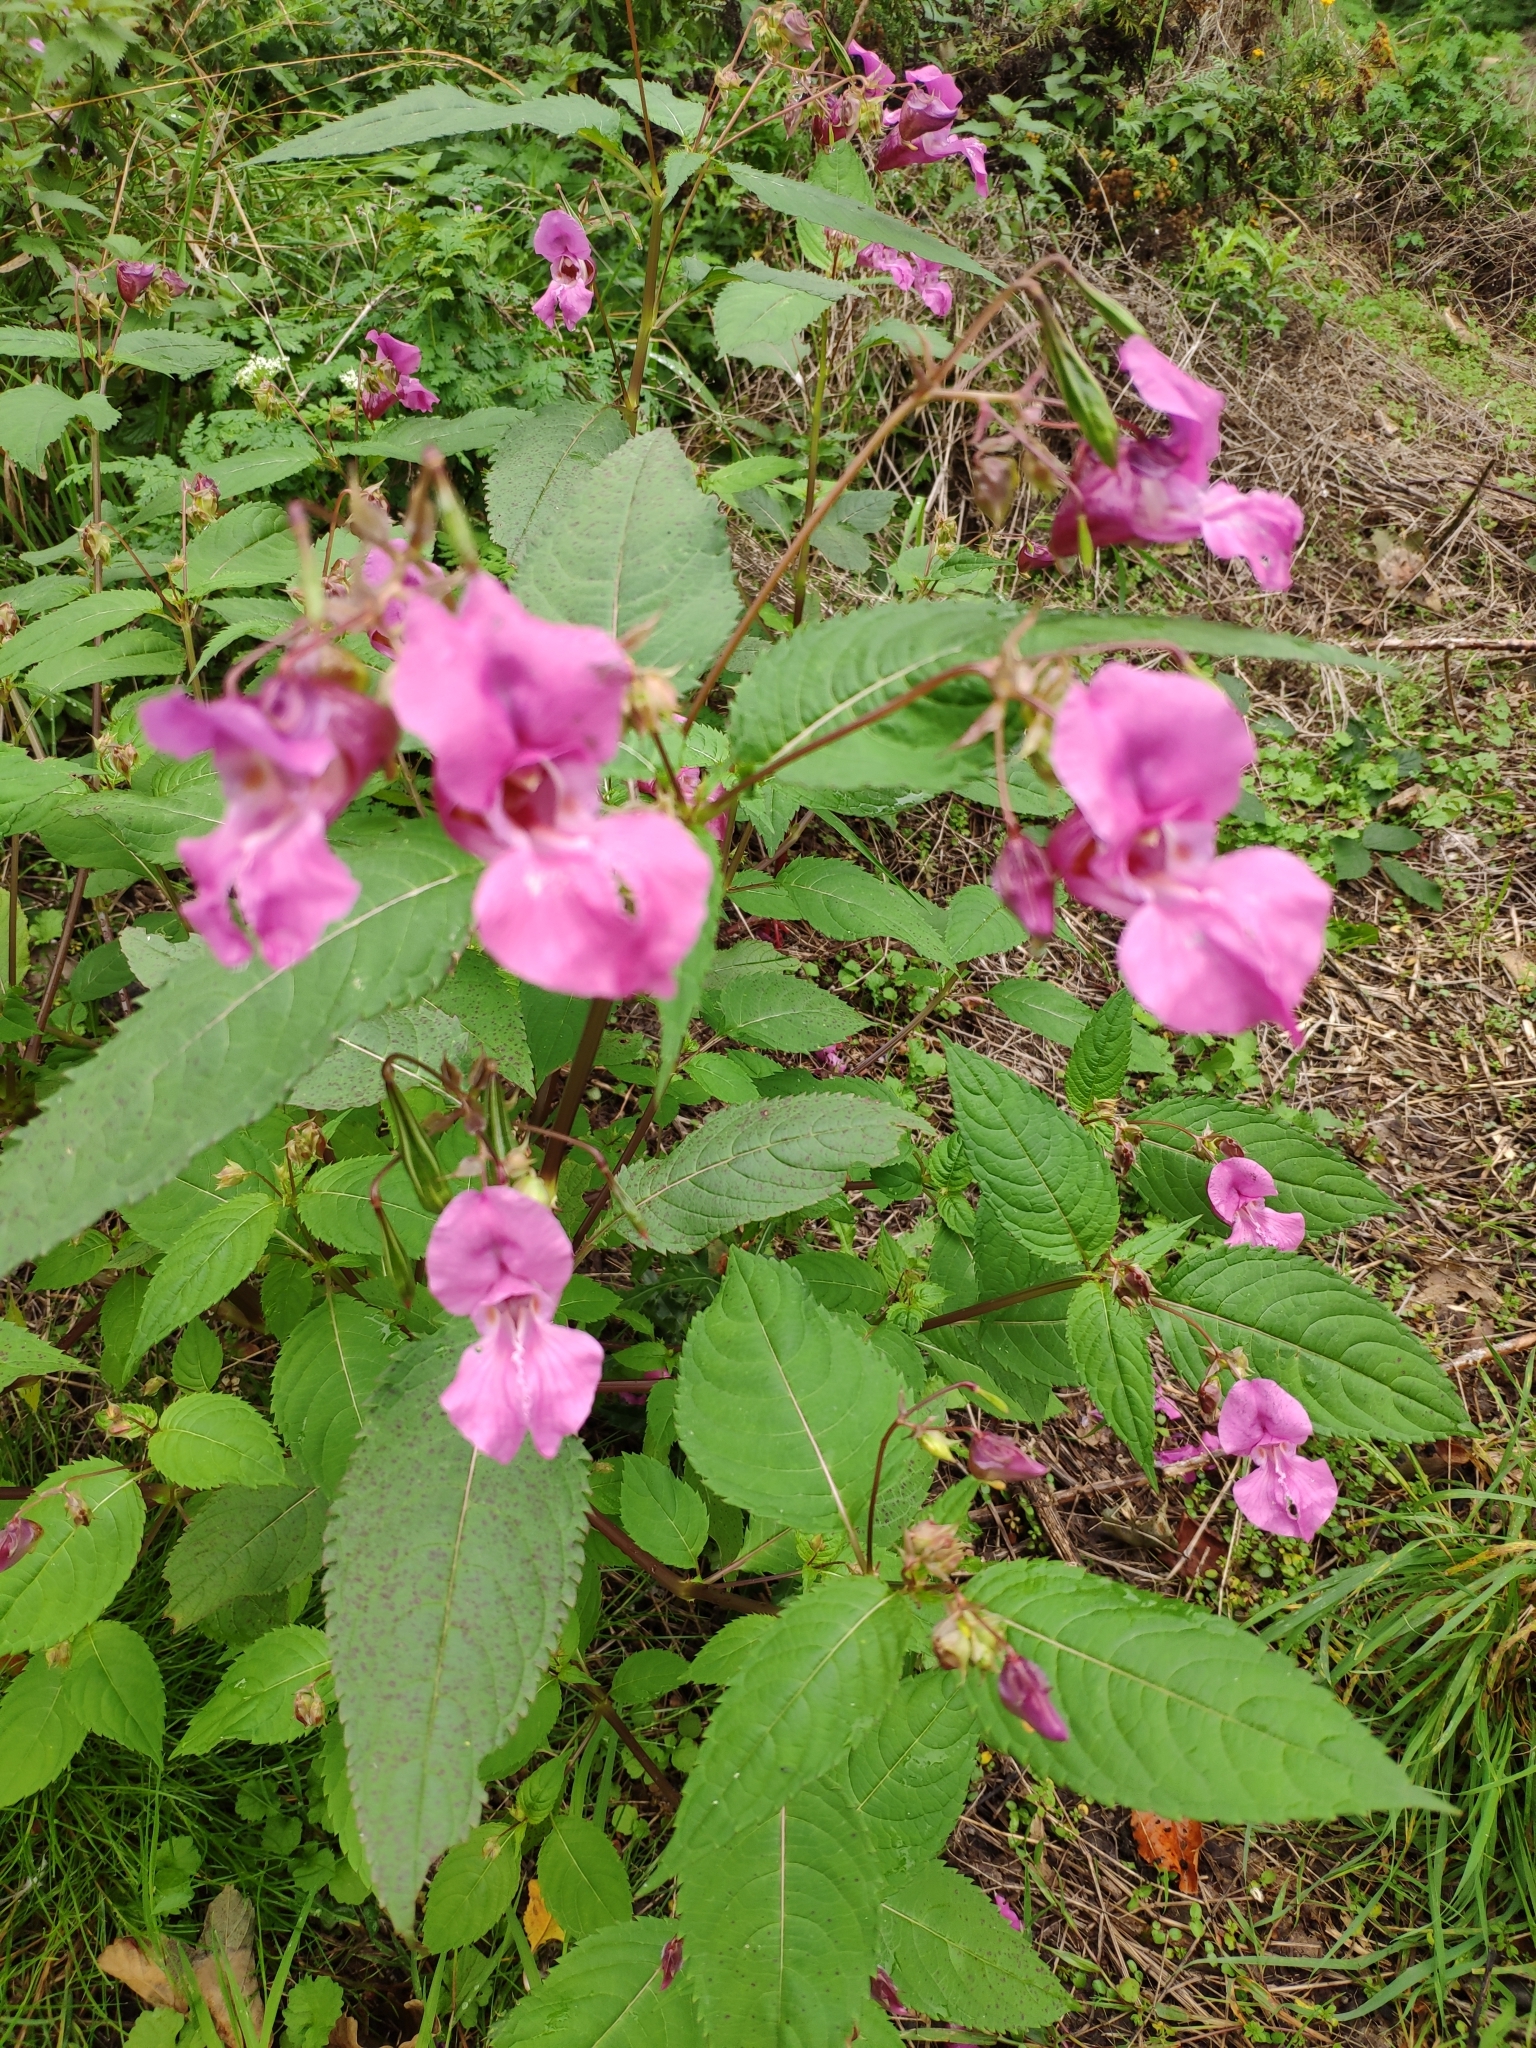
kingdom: Plantae
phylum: Tracheophyta
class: Magnoliopsida
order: Ericales
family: Balsaminaceae
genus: Impatiens
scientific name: Impatiens glandulifera
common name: Himalayan balsam
